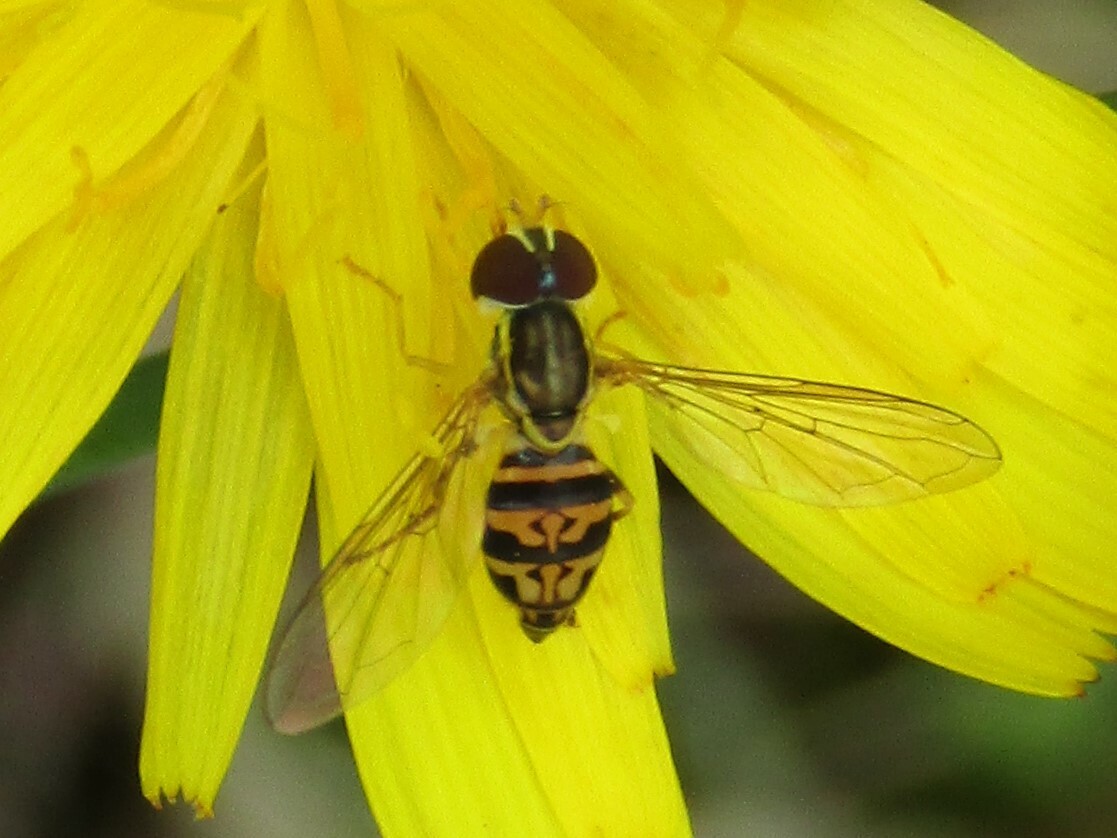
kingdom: Animalia
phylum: Arthropoda
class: Insecta
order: Diptera
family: Syrphidae
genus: Toxomerus
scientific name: Toxomerus geminatus
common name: Eastern calligrapher
